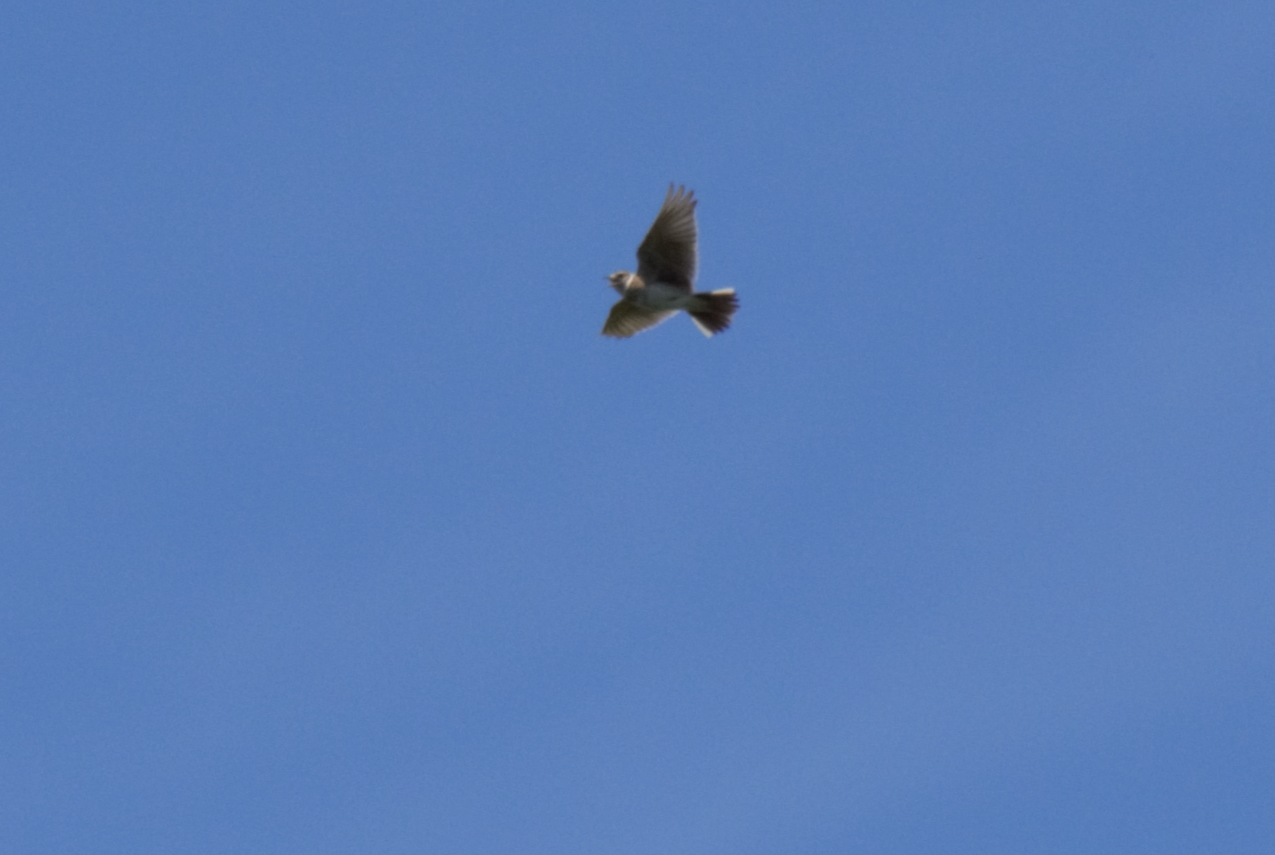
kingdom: Animalia
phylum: Chordata
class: Aves
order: Passeriformes
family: Alaudidae
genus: Alauda
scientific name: Alauda arvensis
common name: Eurasian skylark
